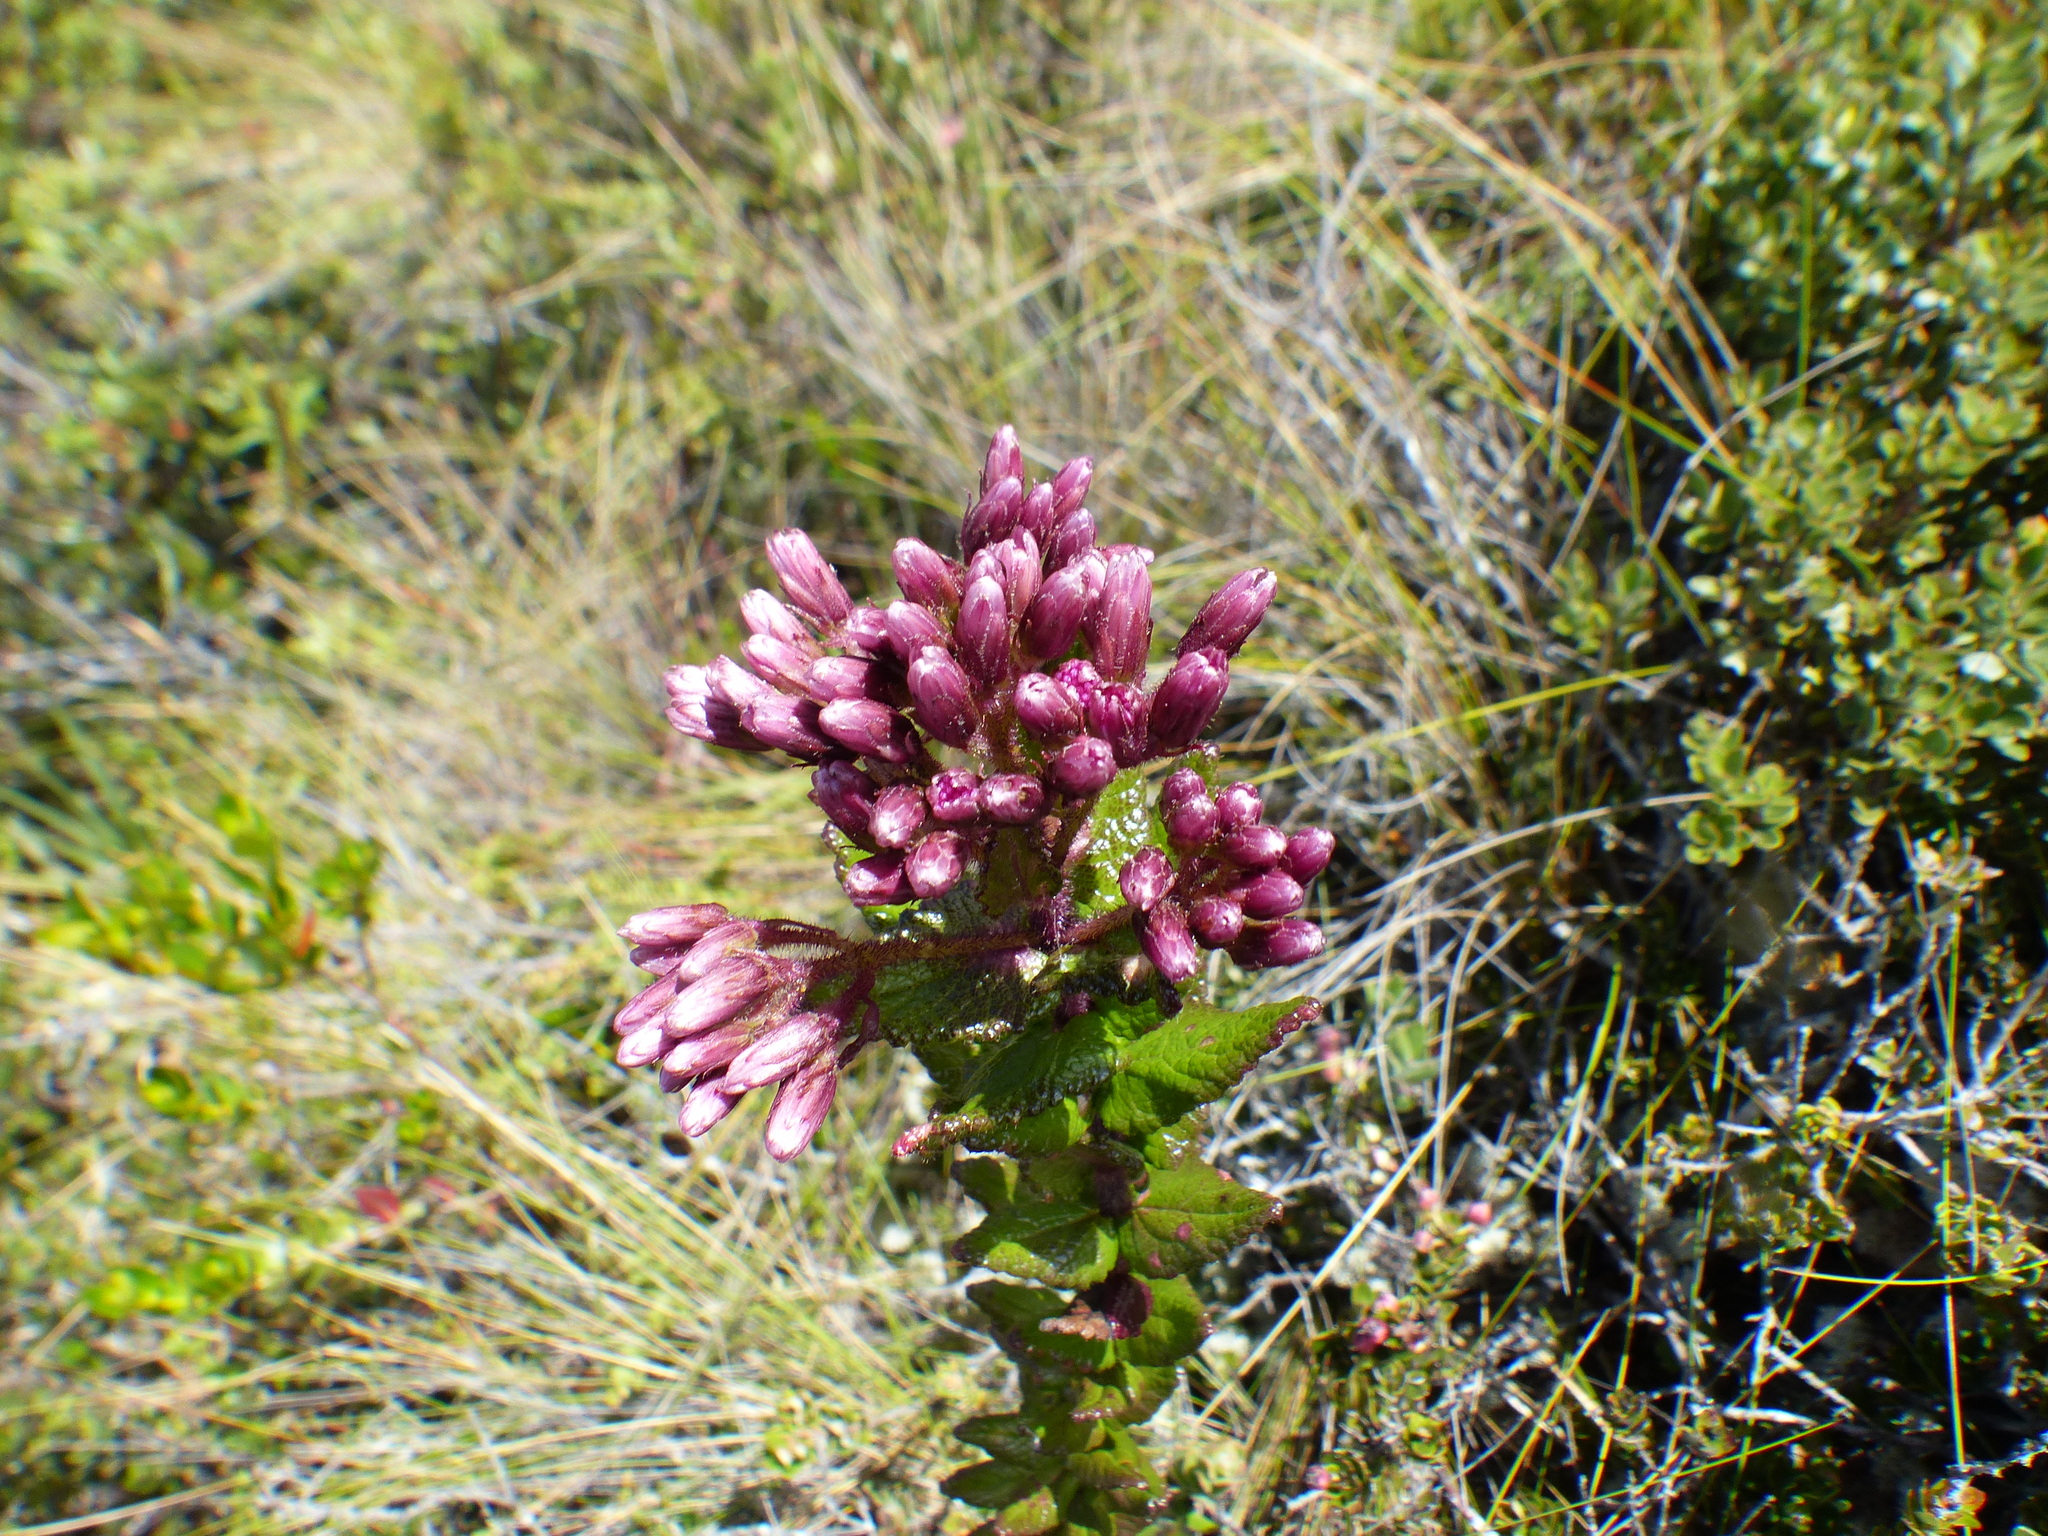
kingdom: Plantae
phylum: Tracheophyta
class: Magnoliopsida
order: Asterales
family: Asteraceae
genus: Aristeguietia
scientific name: Aristeguietia uribei
